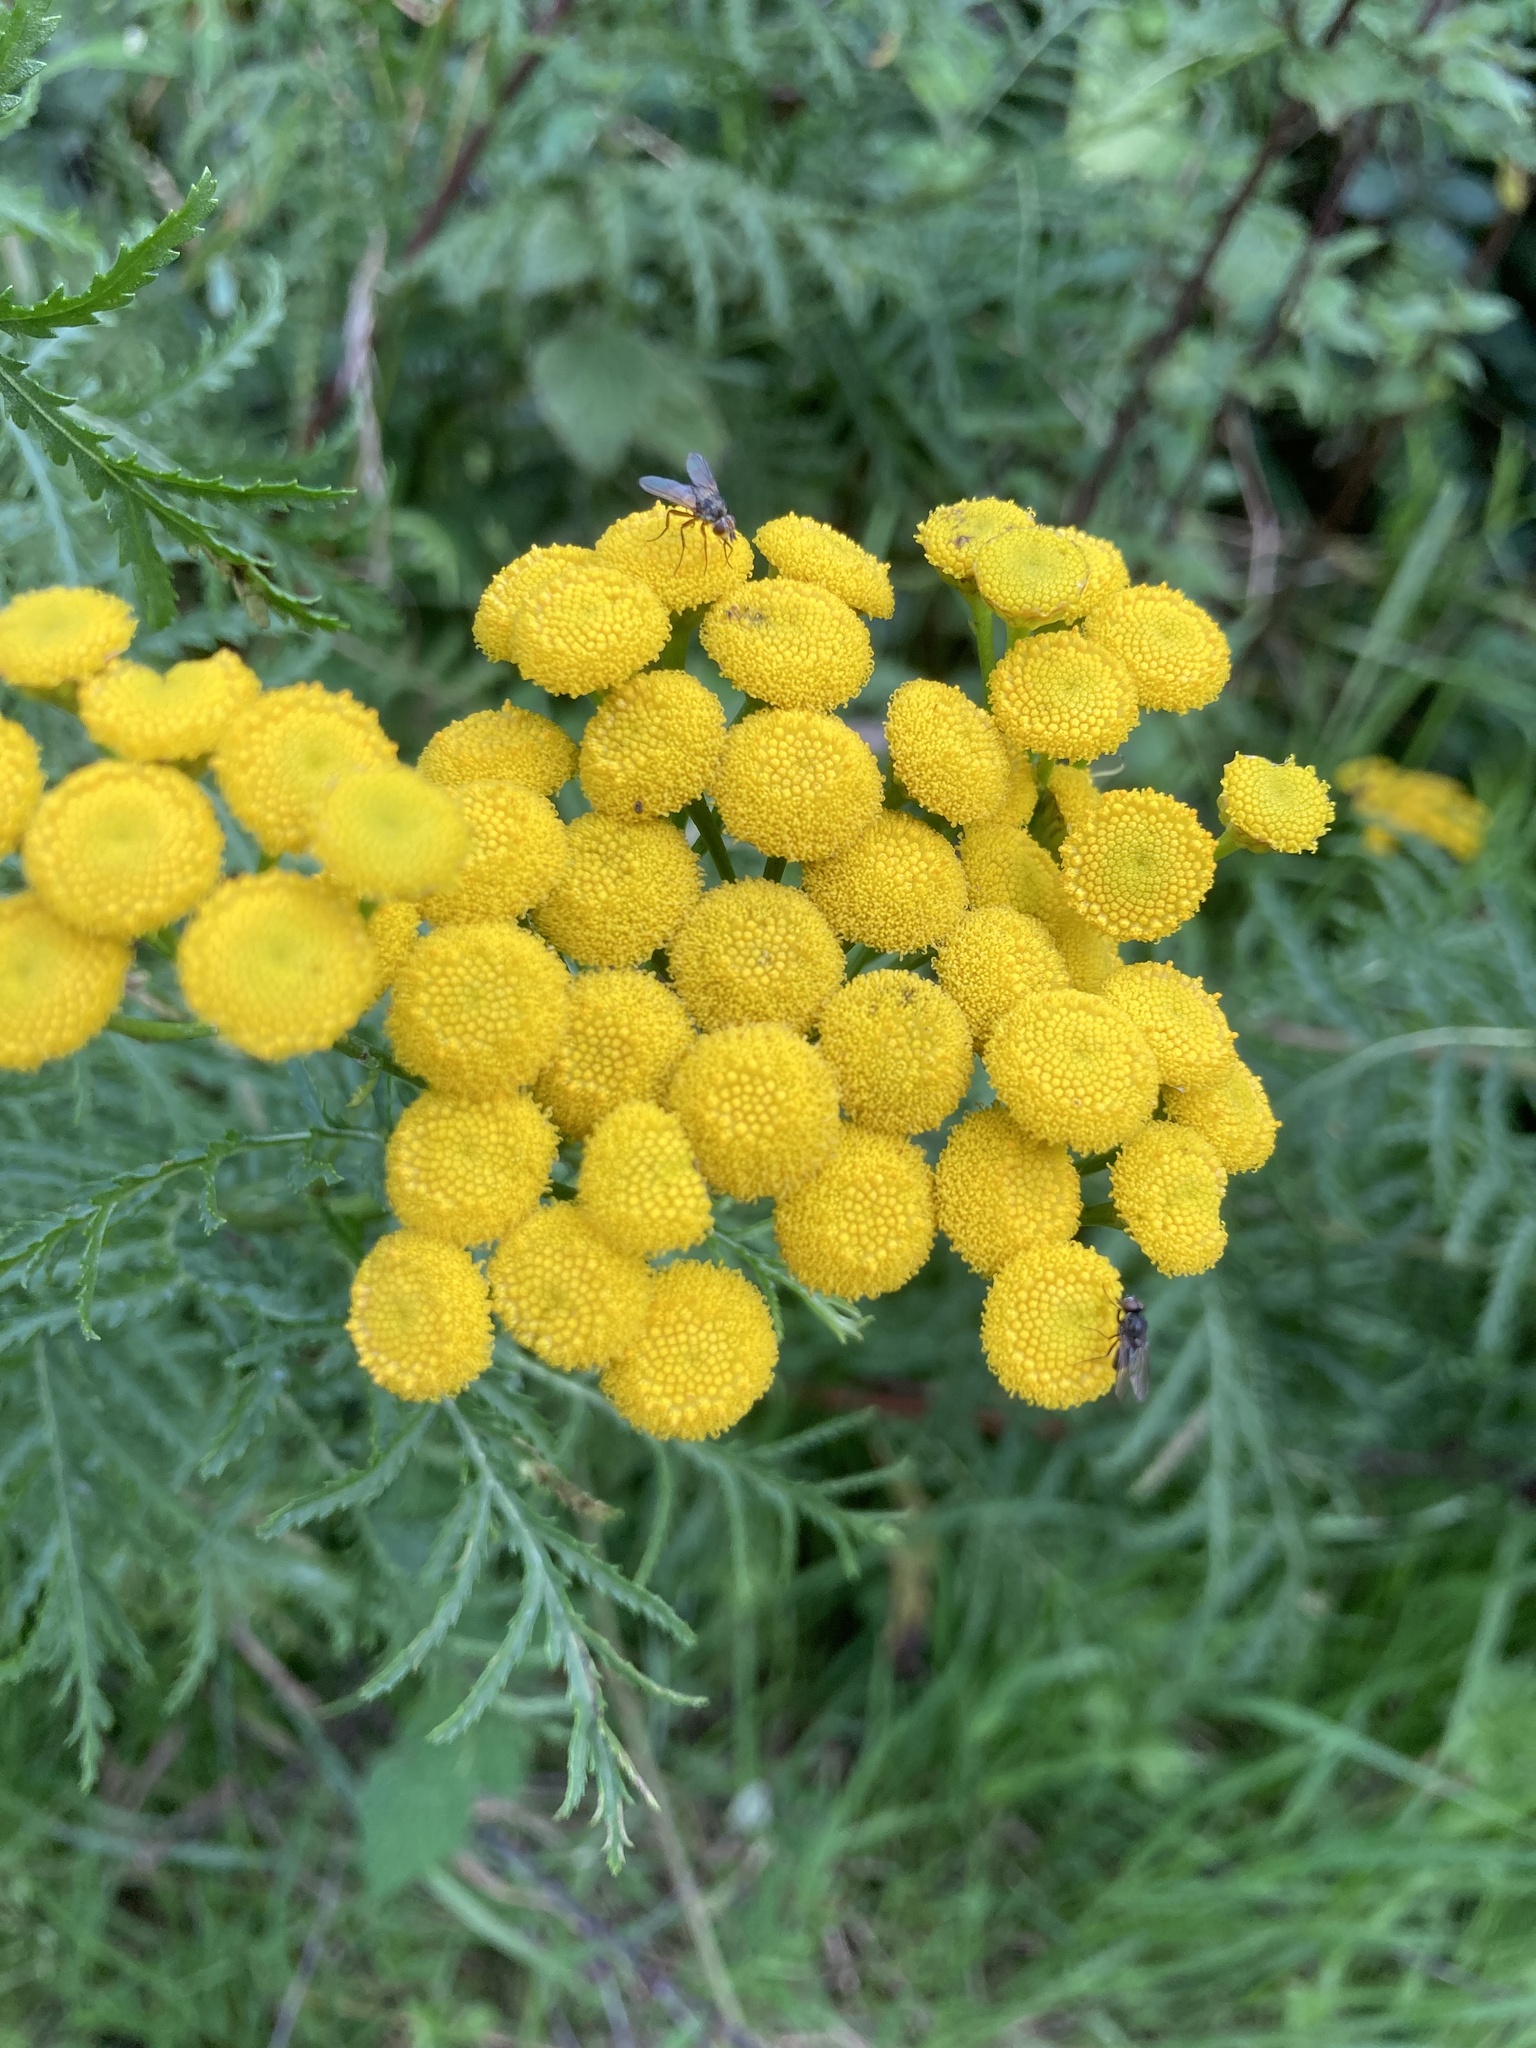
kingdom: Plantae
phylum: Tracheophyta
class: Magnoliopsida
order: Asterales
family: Asteraceae
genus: Tanacetum
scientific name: Tanacetum vulgare
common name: Common tansy
